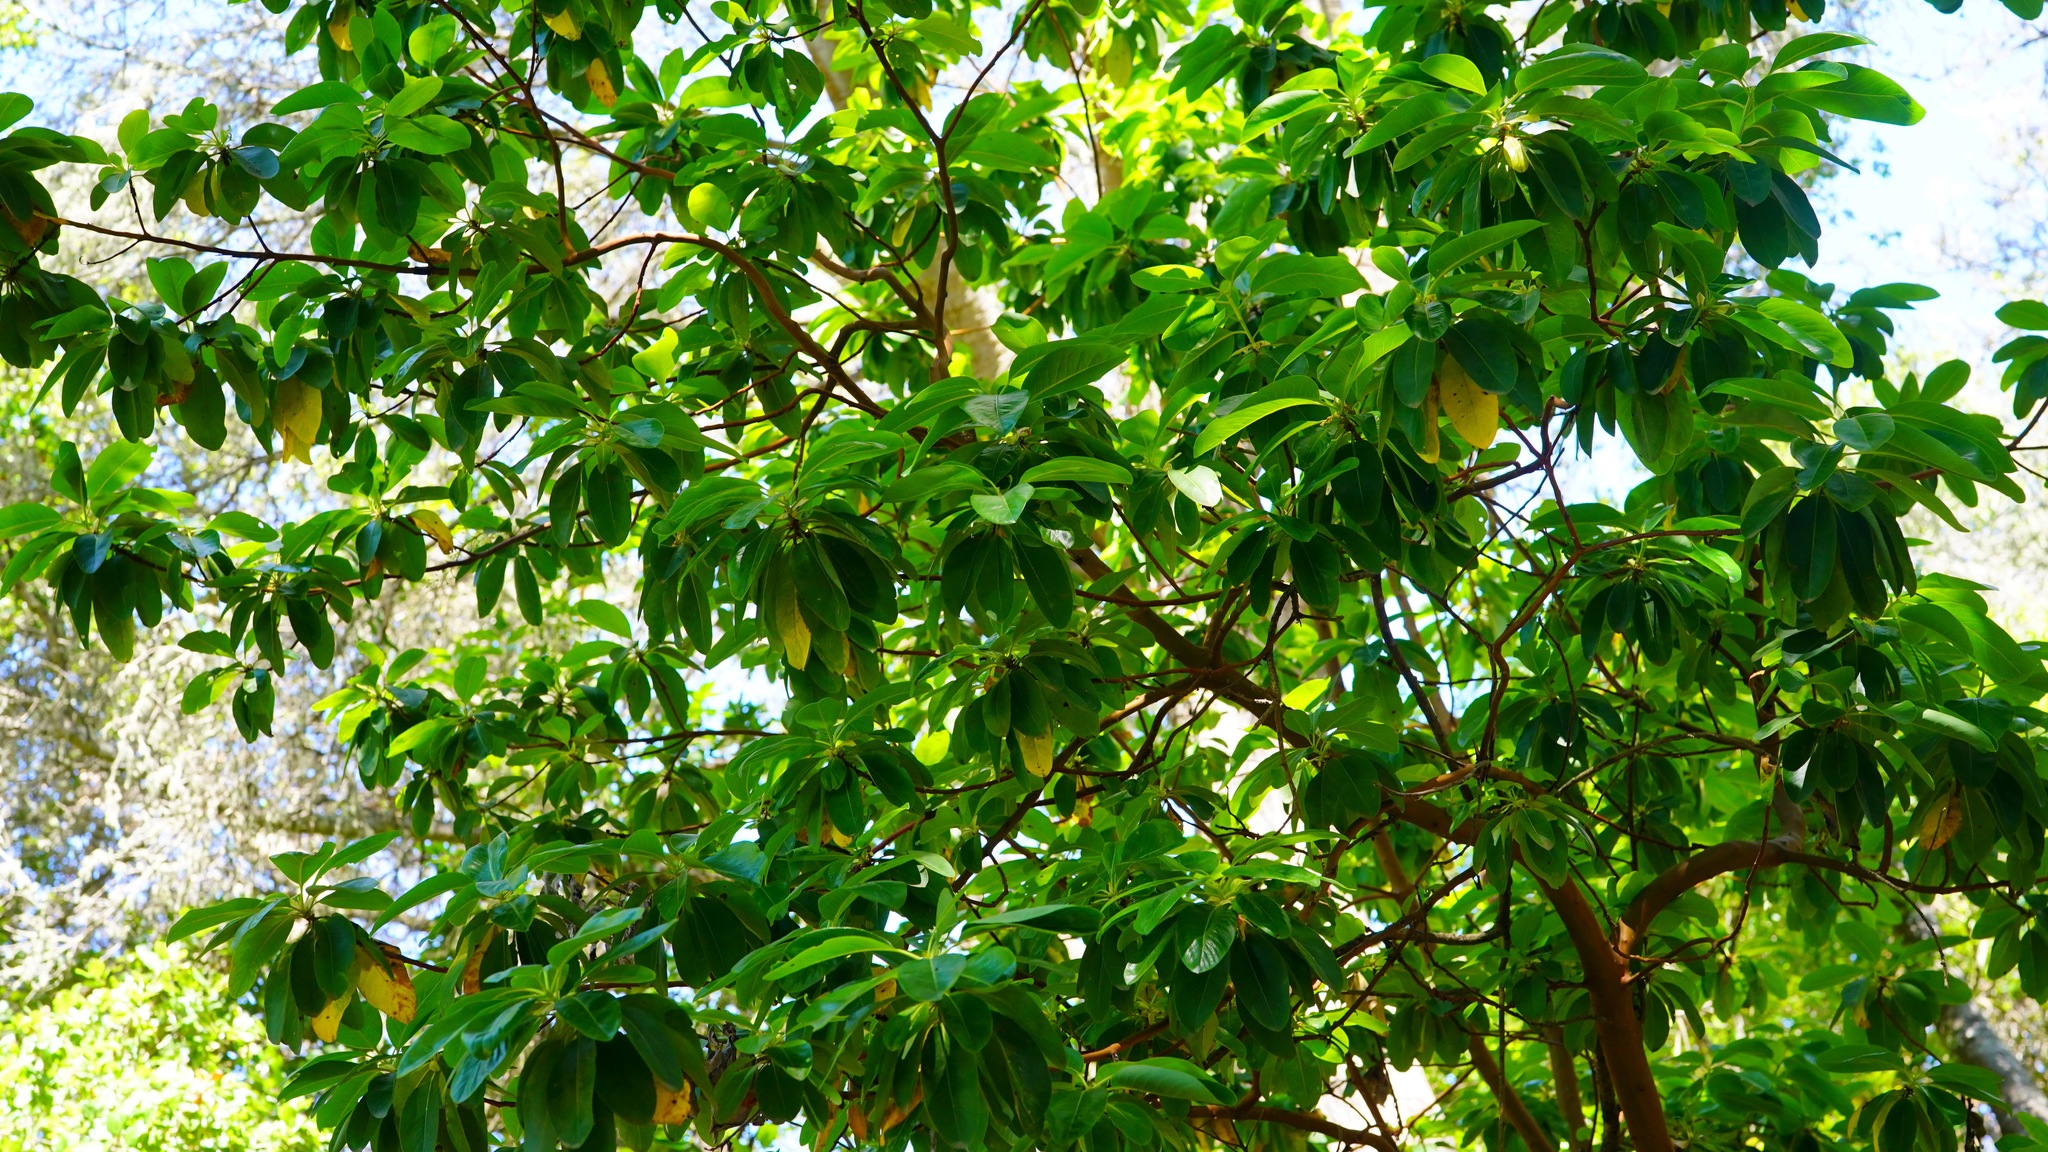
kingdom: Plantae
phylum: Tracheophyta
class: Magnoliopsida
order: Ericales
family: Ericaceae
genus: Arbutus
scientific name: Arbutus menziesii
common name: Pacific madrone
